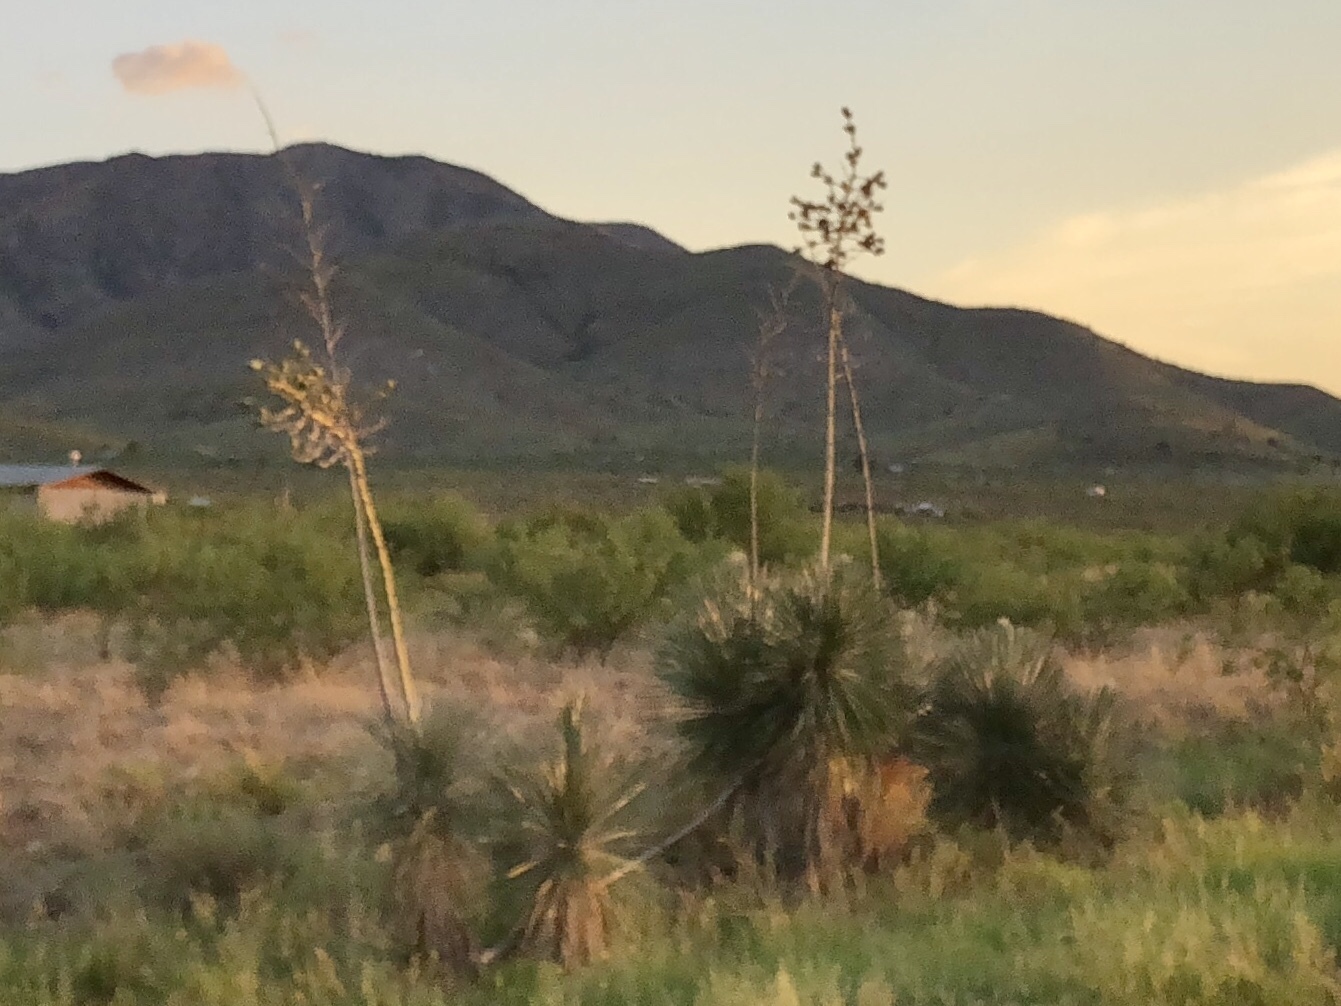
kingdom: Plantae
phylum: Tracheophyta
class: Liliopsida
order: Asparagales
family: Asparagaceae
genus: Yucca
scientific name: Yucca elata
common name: Palmella
